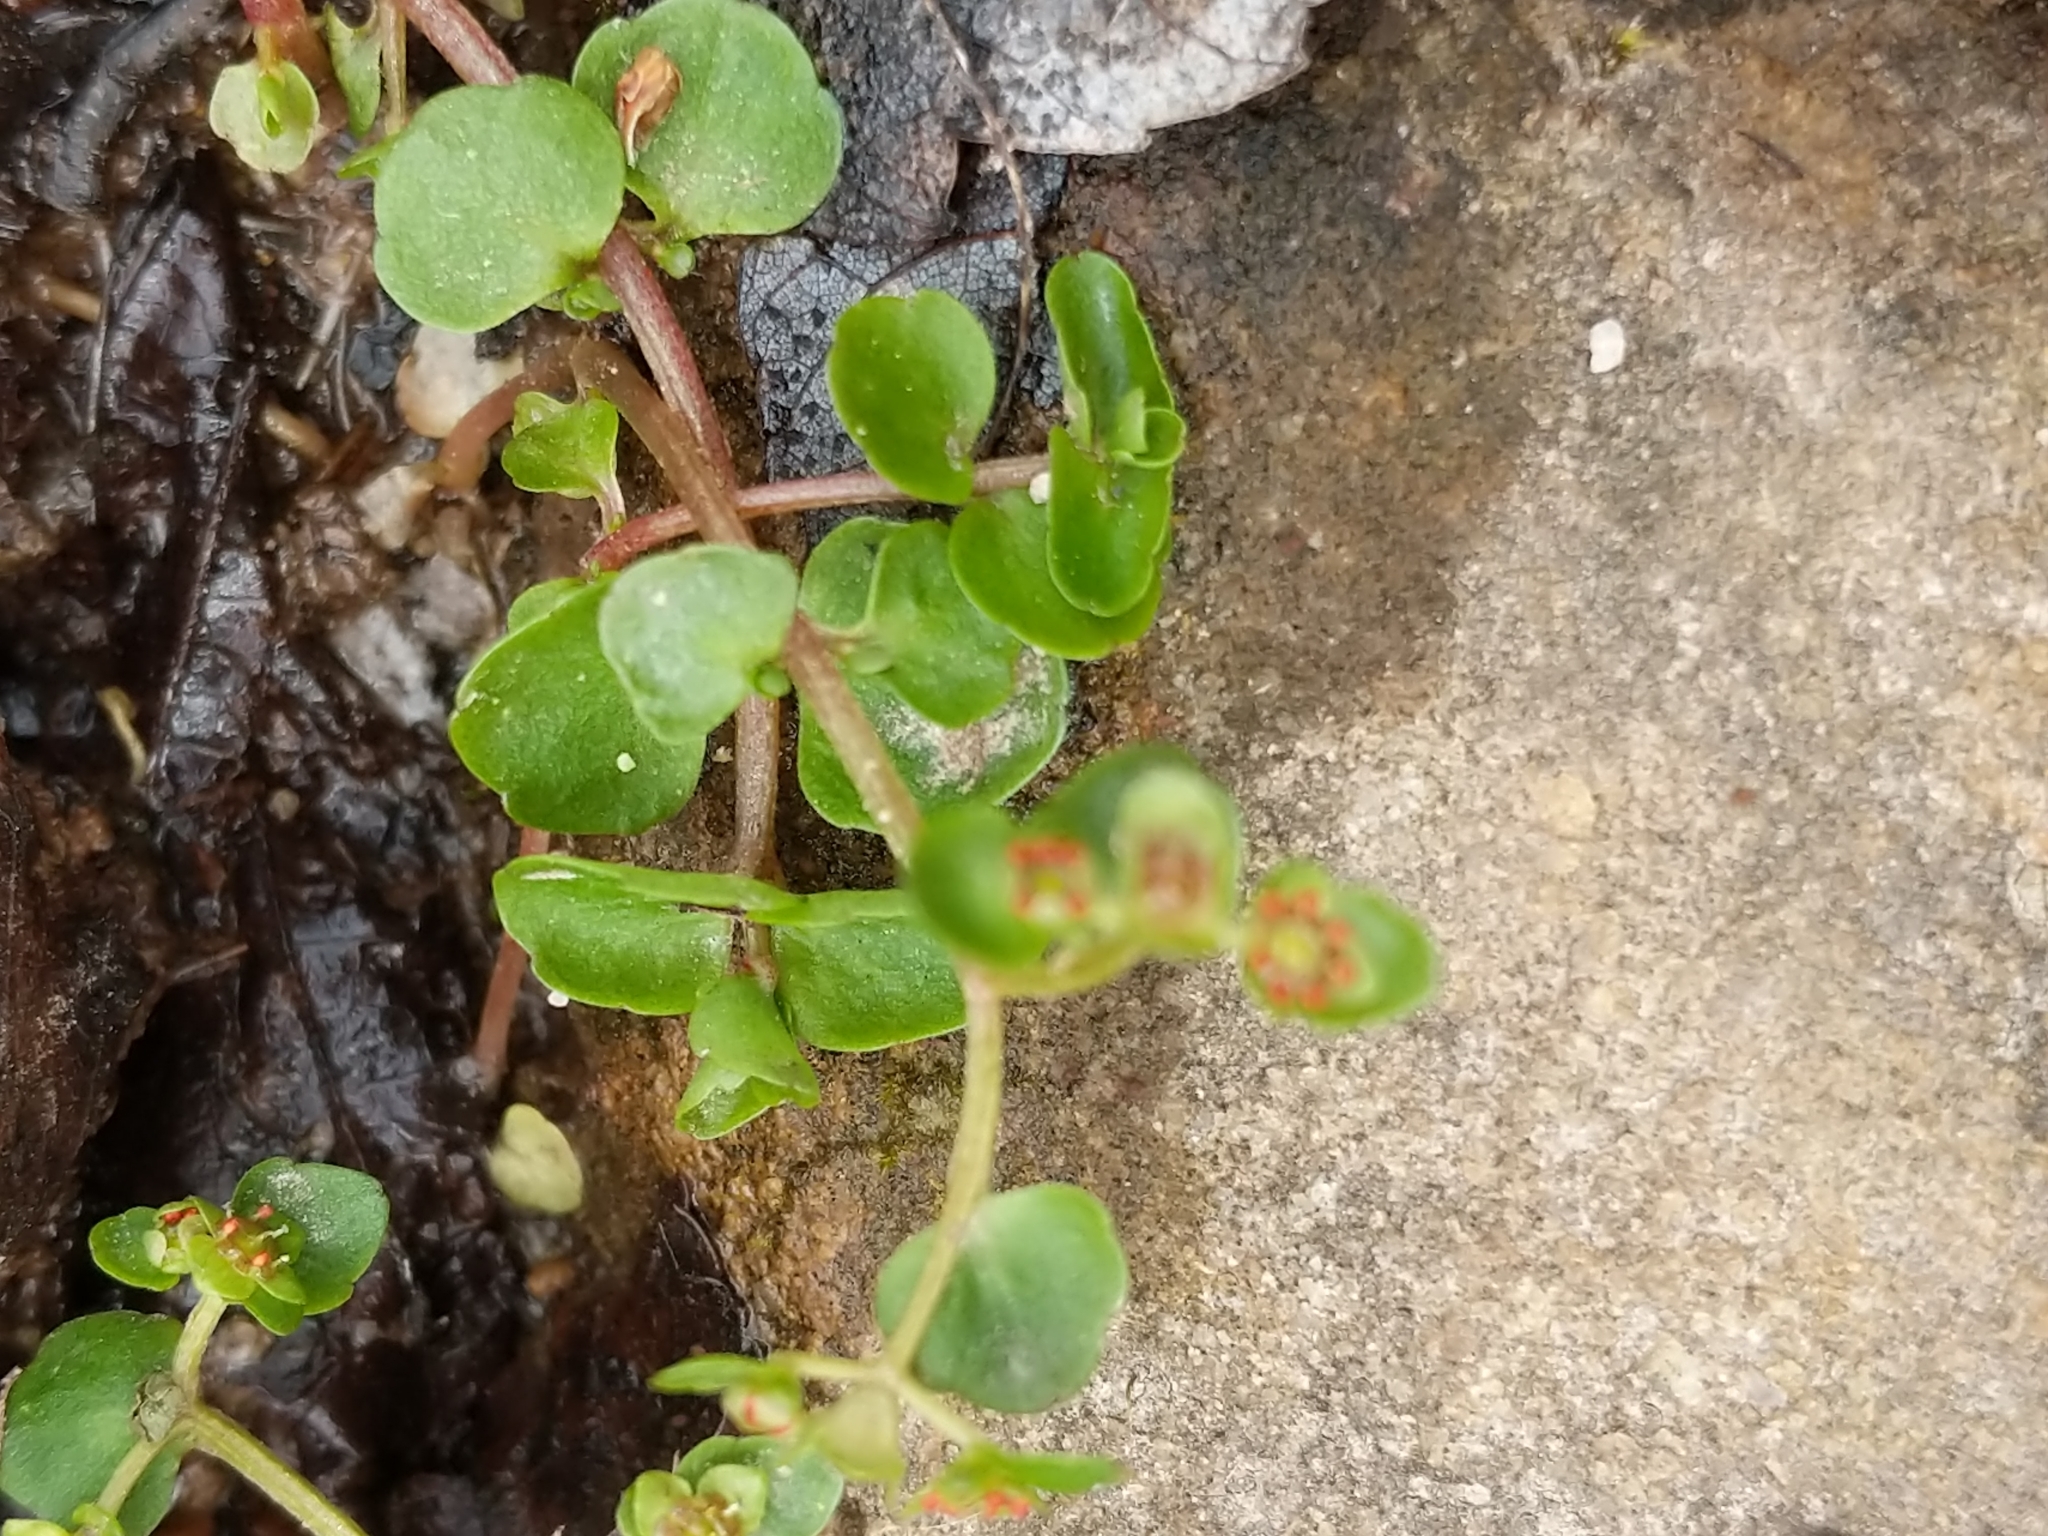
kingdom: Plantae
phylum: Tracheophyta
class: Magnoliopsida
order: Saxifragales
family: Saxifragaceae
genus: Chrysosplenium
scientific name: Chrysosplenium americanum
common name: American golden-saxifrage
